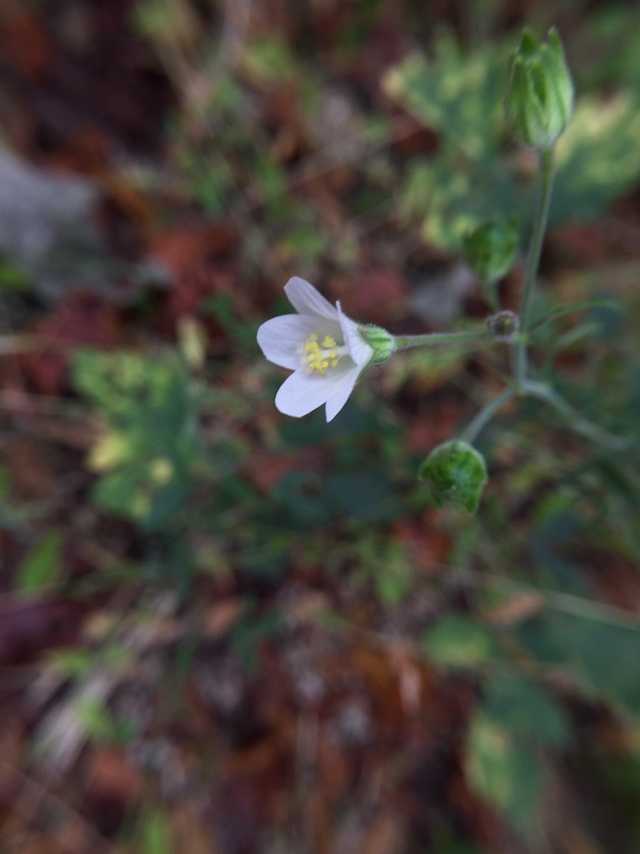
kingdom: Plantae
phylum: Tracheophyta
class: Magnoliopsida
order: Malvales
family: Malvaceae
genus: Hibiscus
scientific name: Hibiscus lobatus
